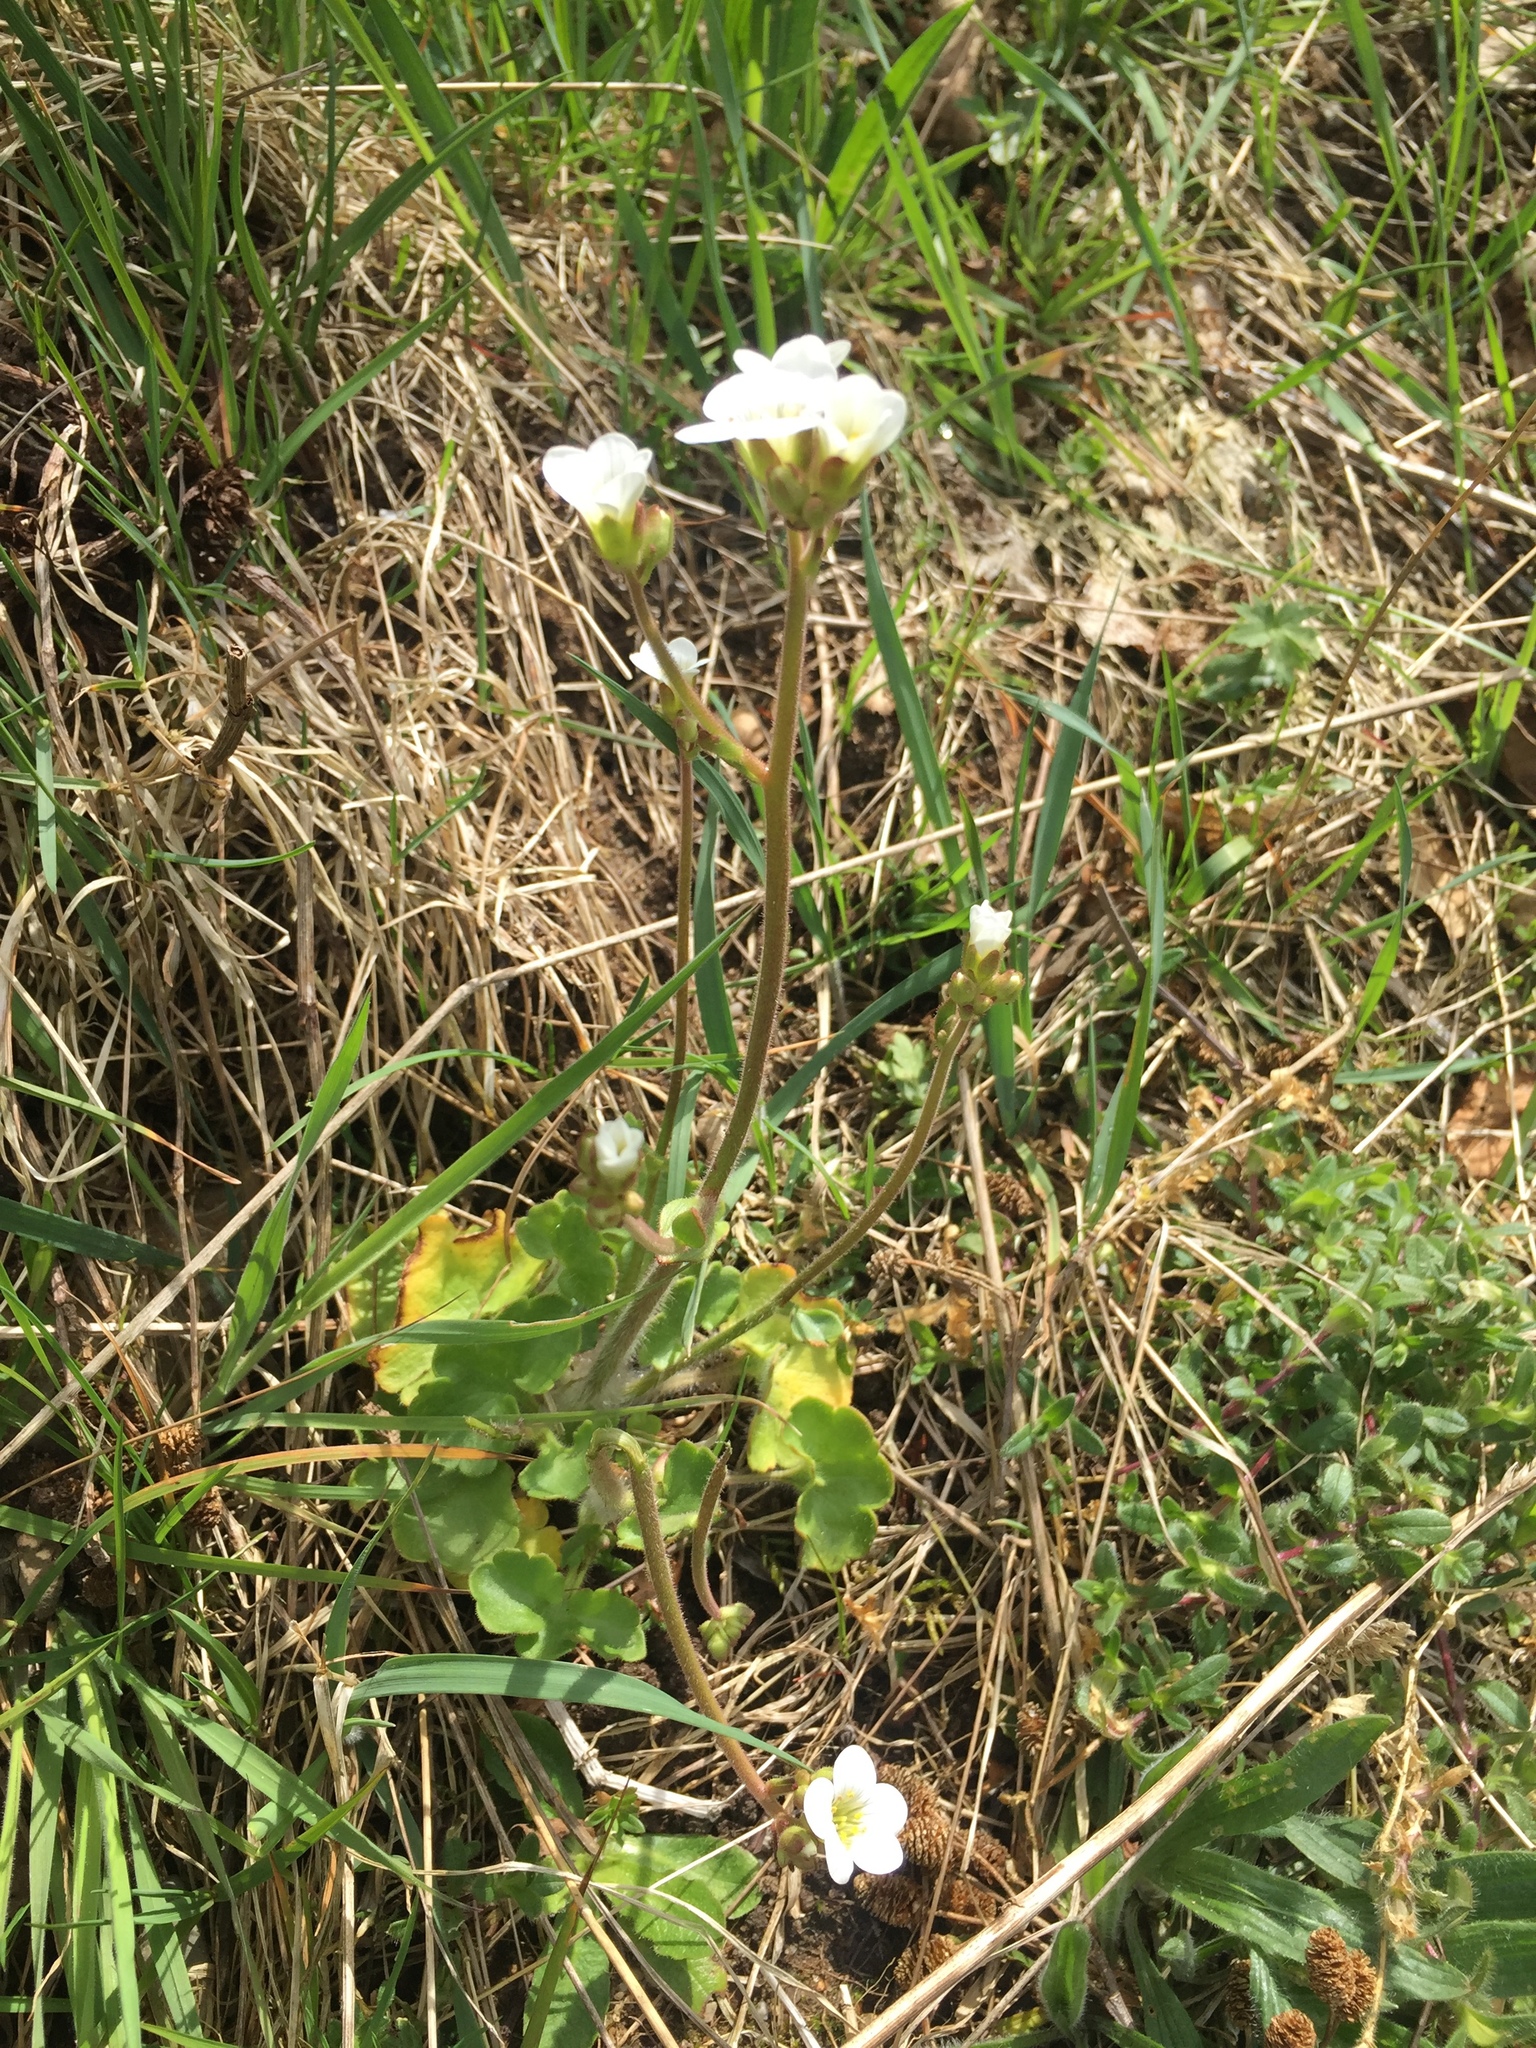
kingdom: Plantae
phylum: Tracheophyta
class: Magnoliopsida
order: Saxifragales
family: Saxifragaceae
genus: Saxifraga
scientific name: Saxifraga granulata
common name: Meadow saxifrage
